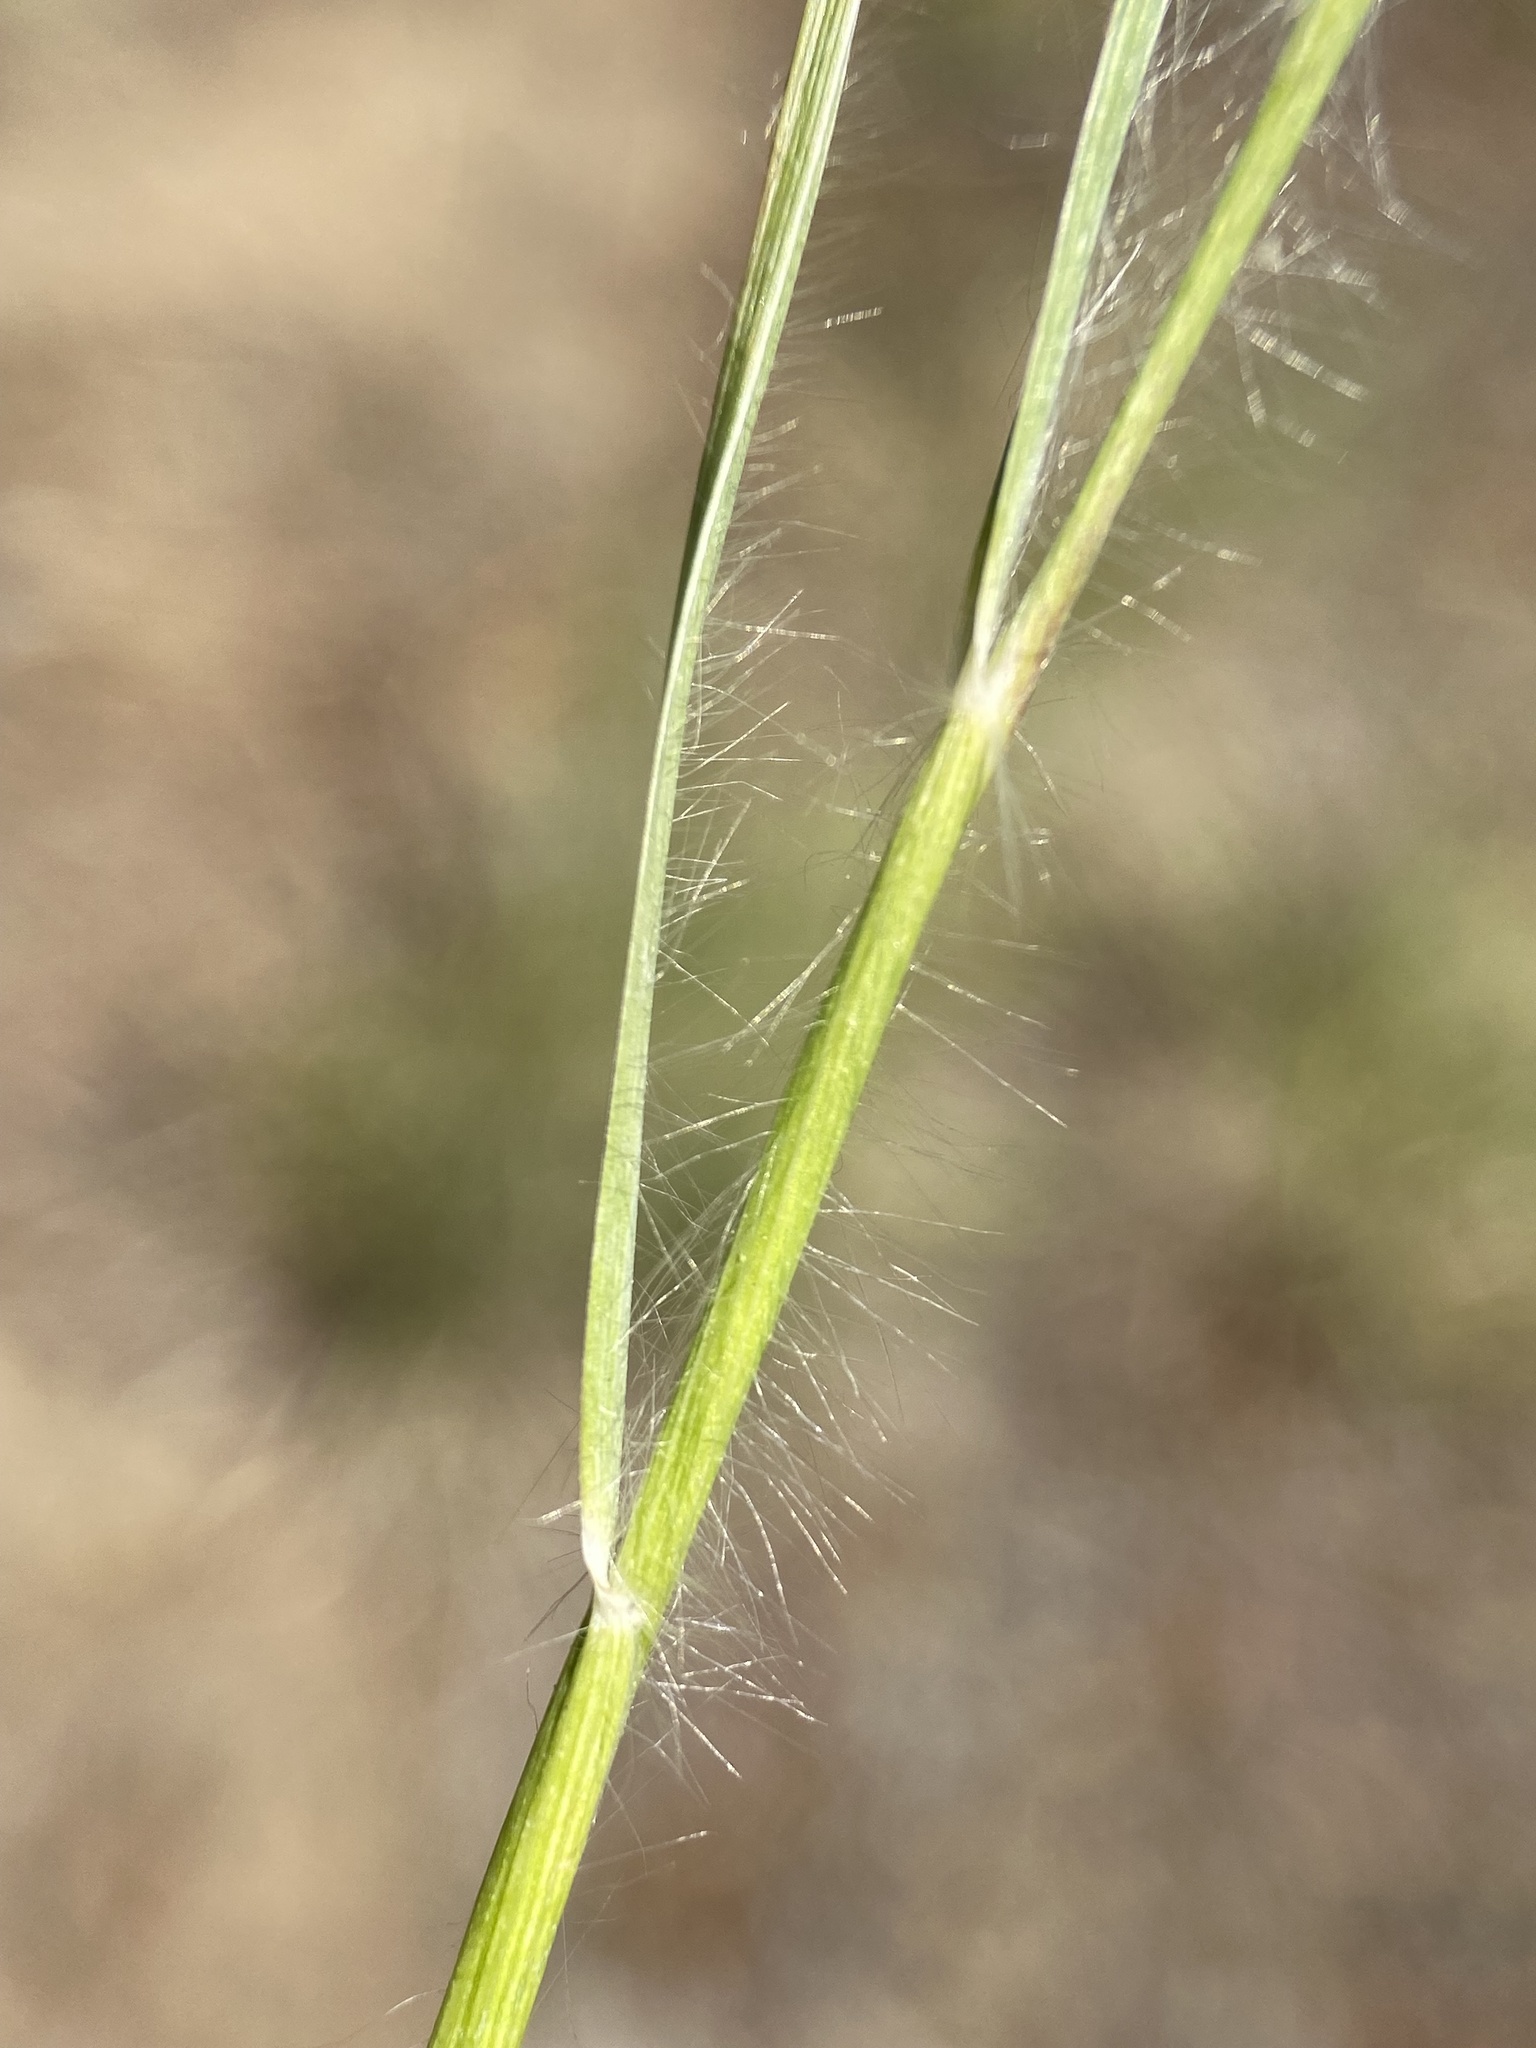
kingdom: Plantae
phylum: Tracheophyta
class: Liliopsida
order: Poales
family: Poaceae
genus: Danthonia
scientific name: Danthonia unispicata
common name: Few-flowered oatgrass
